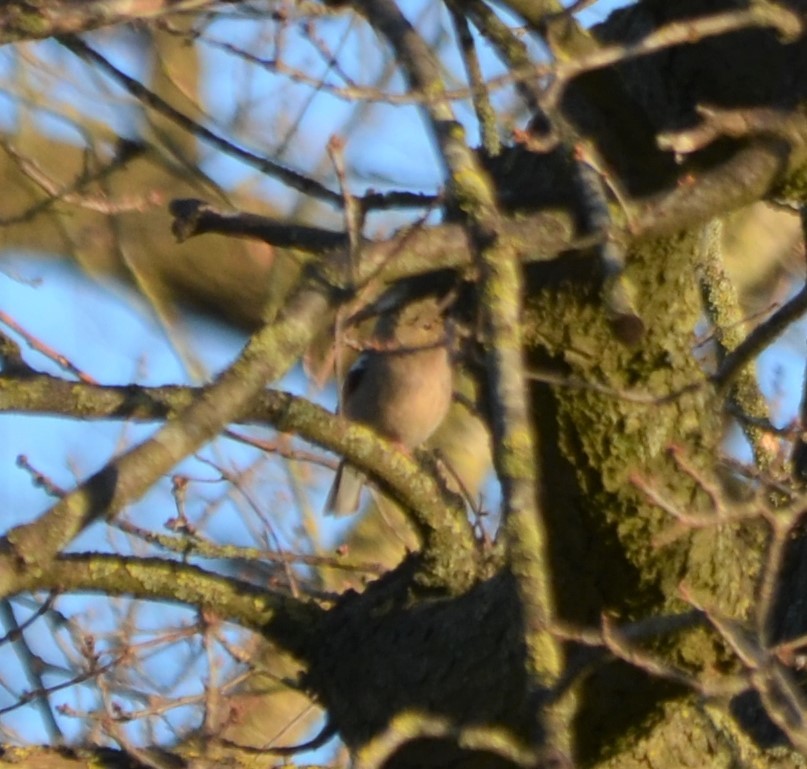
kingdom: Animalia
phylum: Chordata
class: Aves
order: Passeriformes
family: Fringillidae
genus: Fringilla
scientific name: Fringilla coelebs
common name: Common chaffinch
